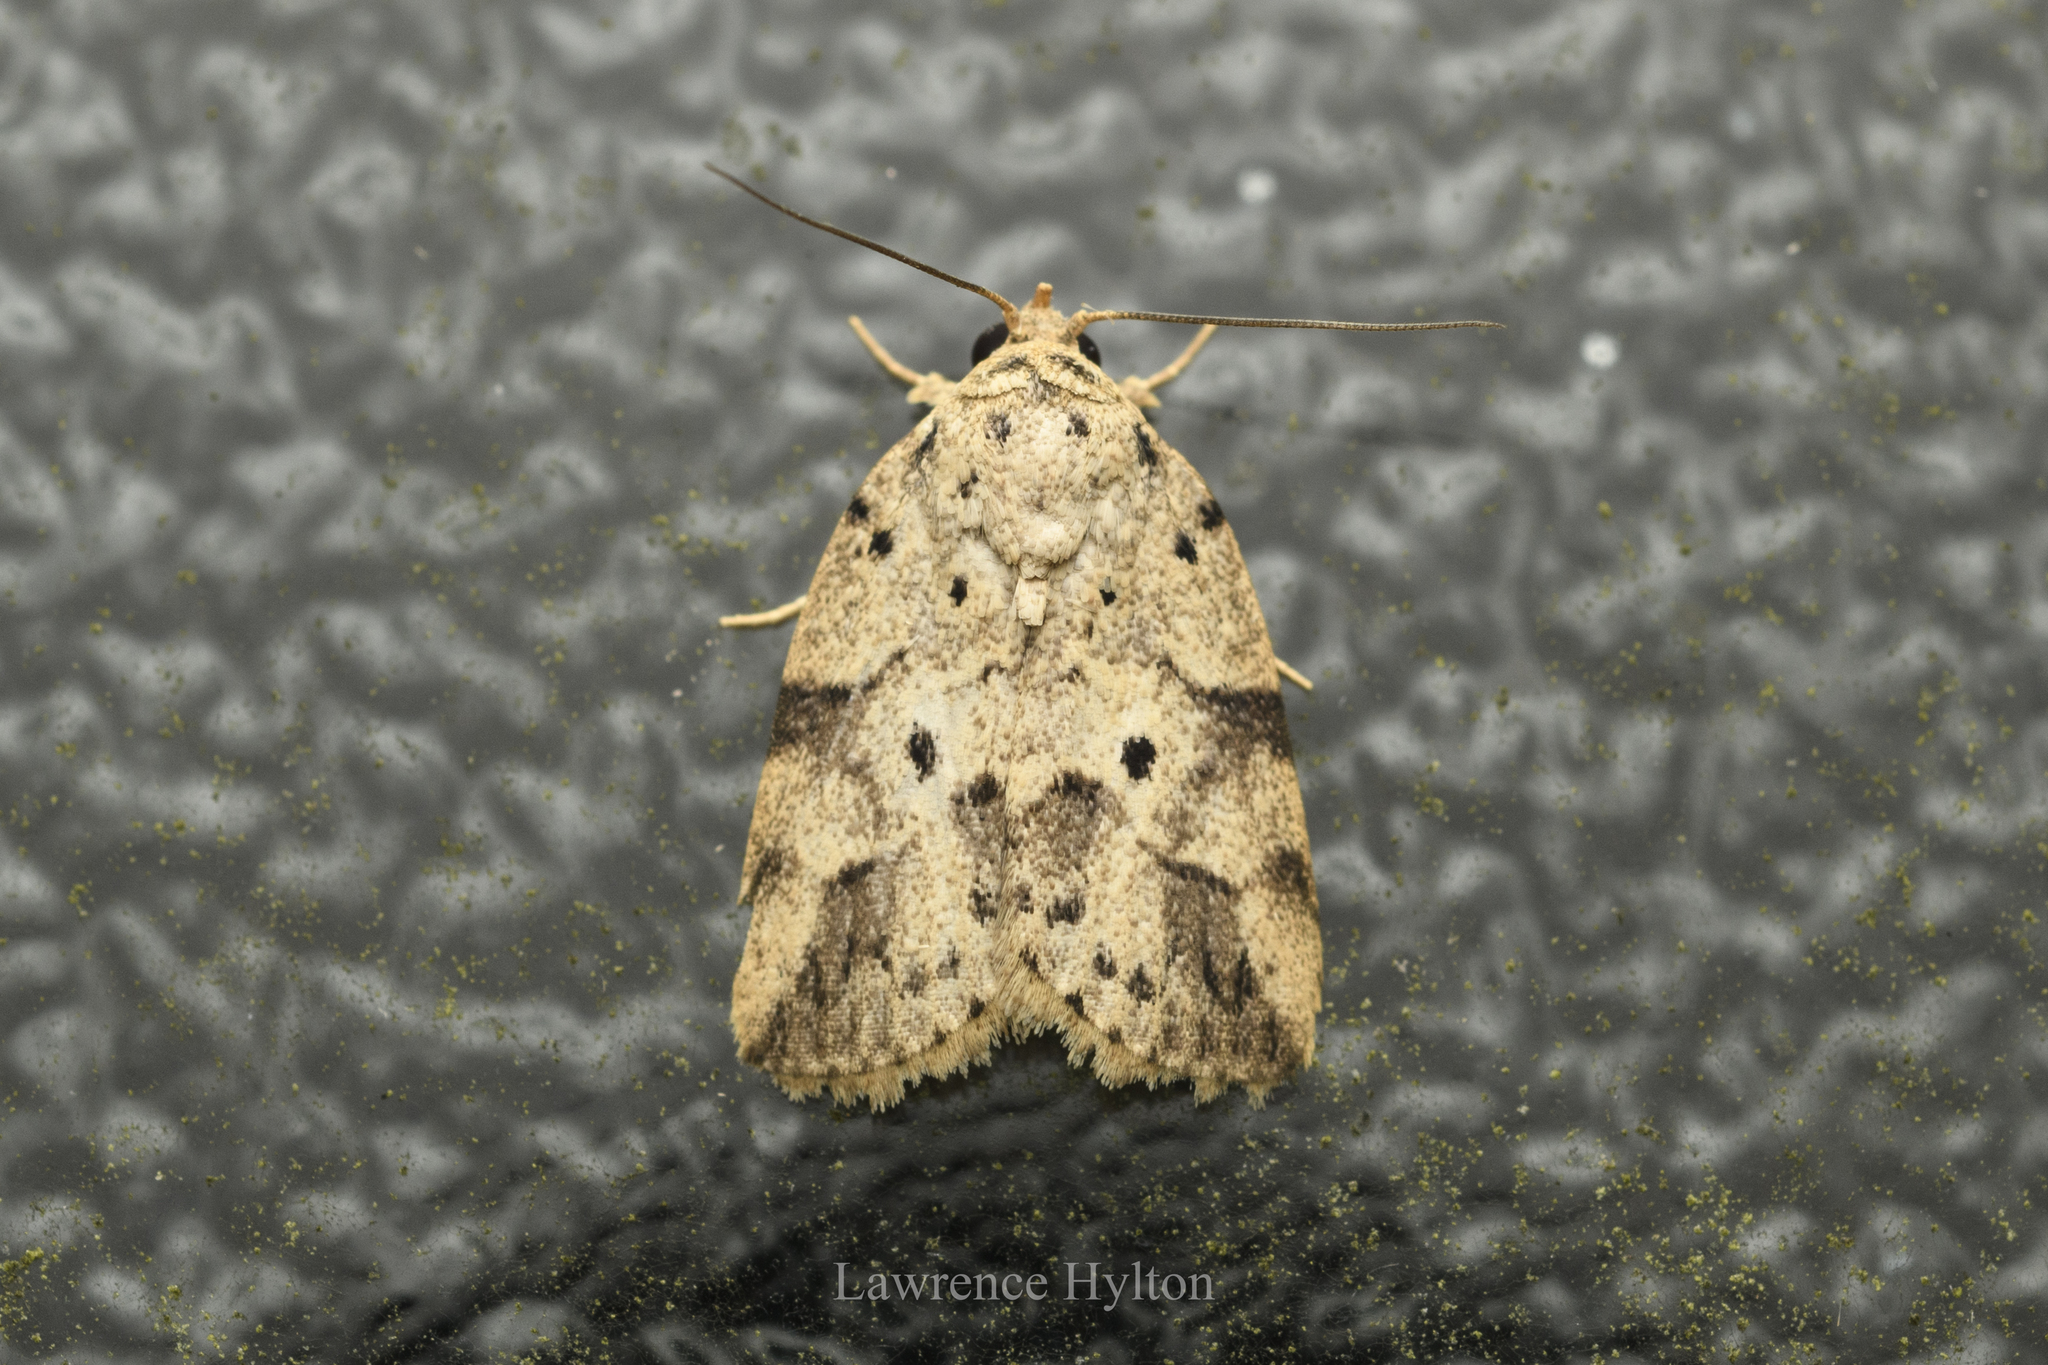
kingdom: Animalia
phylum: Arthropoda
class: Insecta
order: Lepidoptera
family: Nolidae
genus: Giaura
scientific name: Giaura multipunctata
